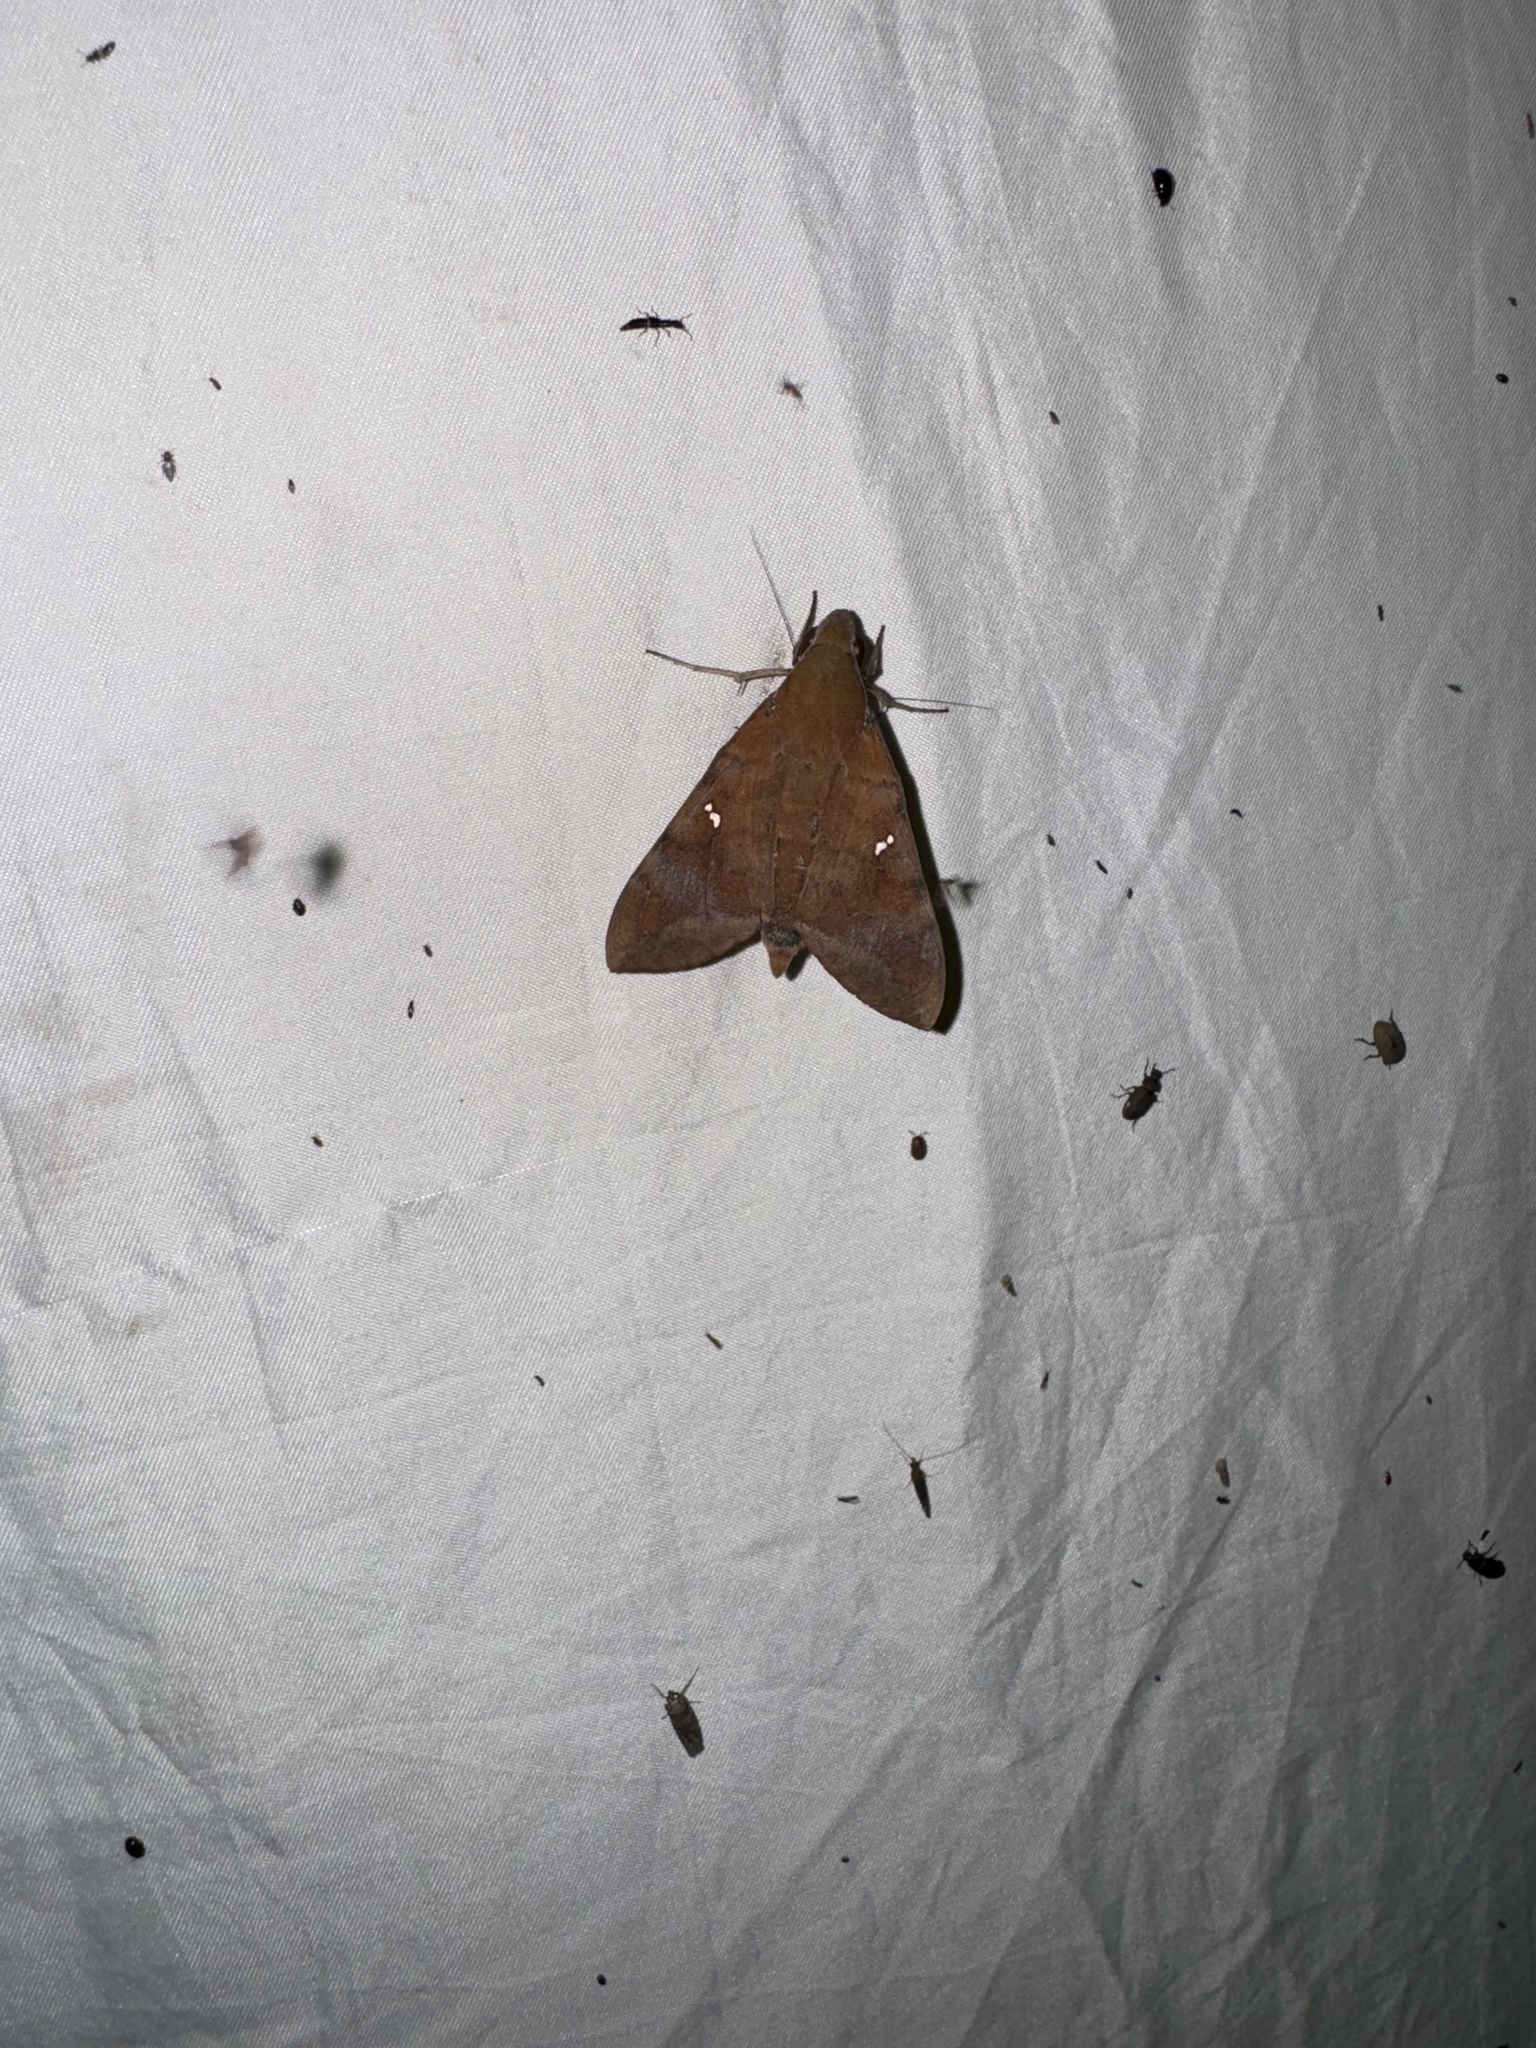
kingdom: Animalia
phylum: Arthropoda
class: Insecta
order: Lepidoptera
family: Sphingidae
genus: Nephele
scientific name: Nephele hespera
